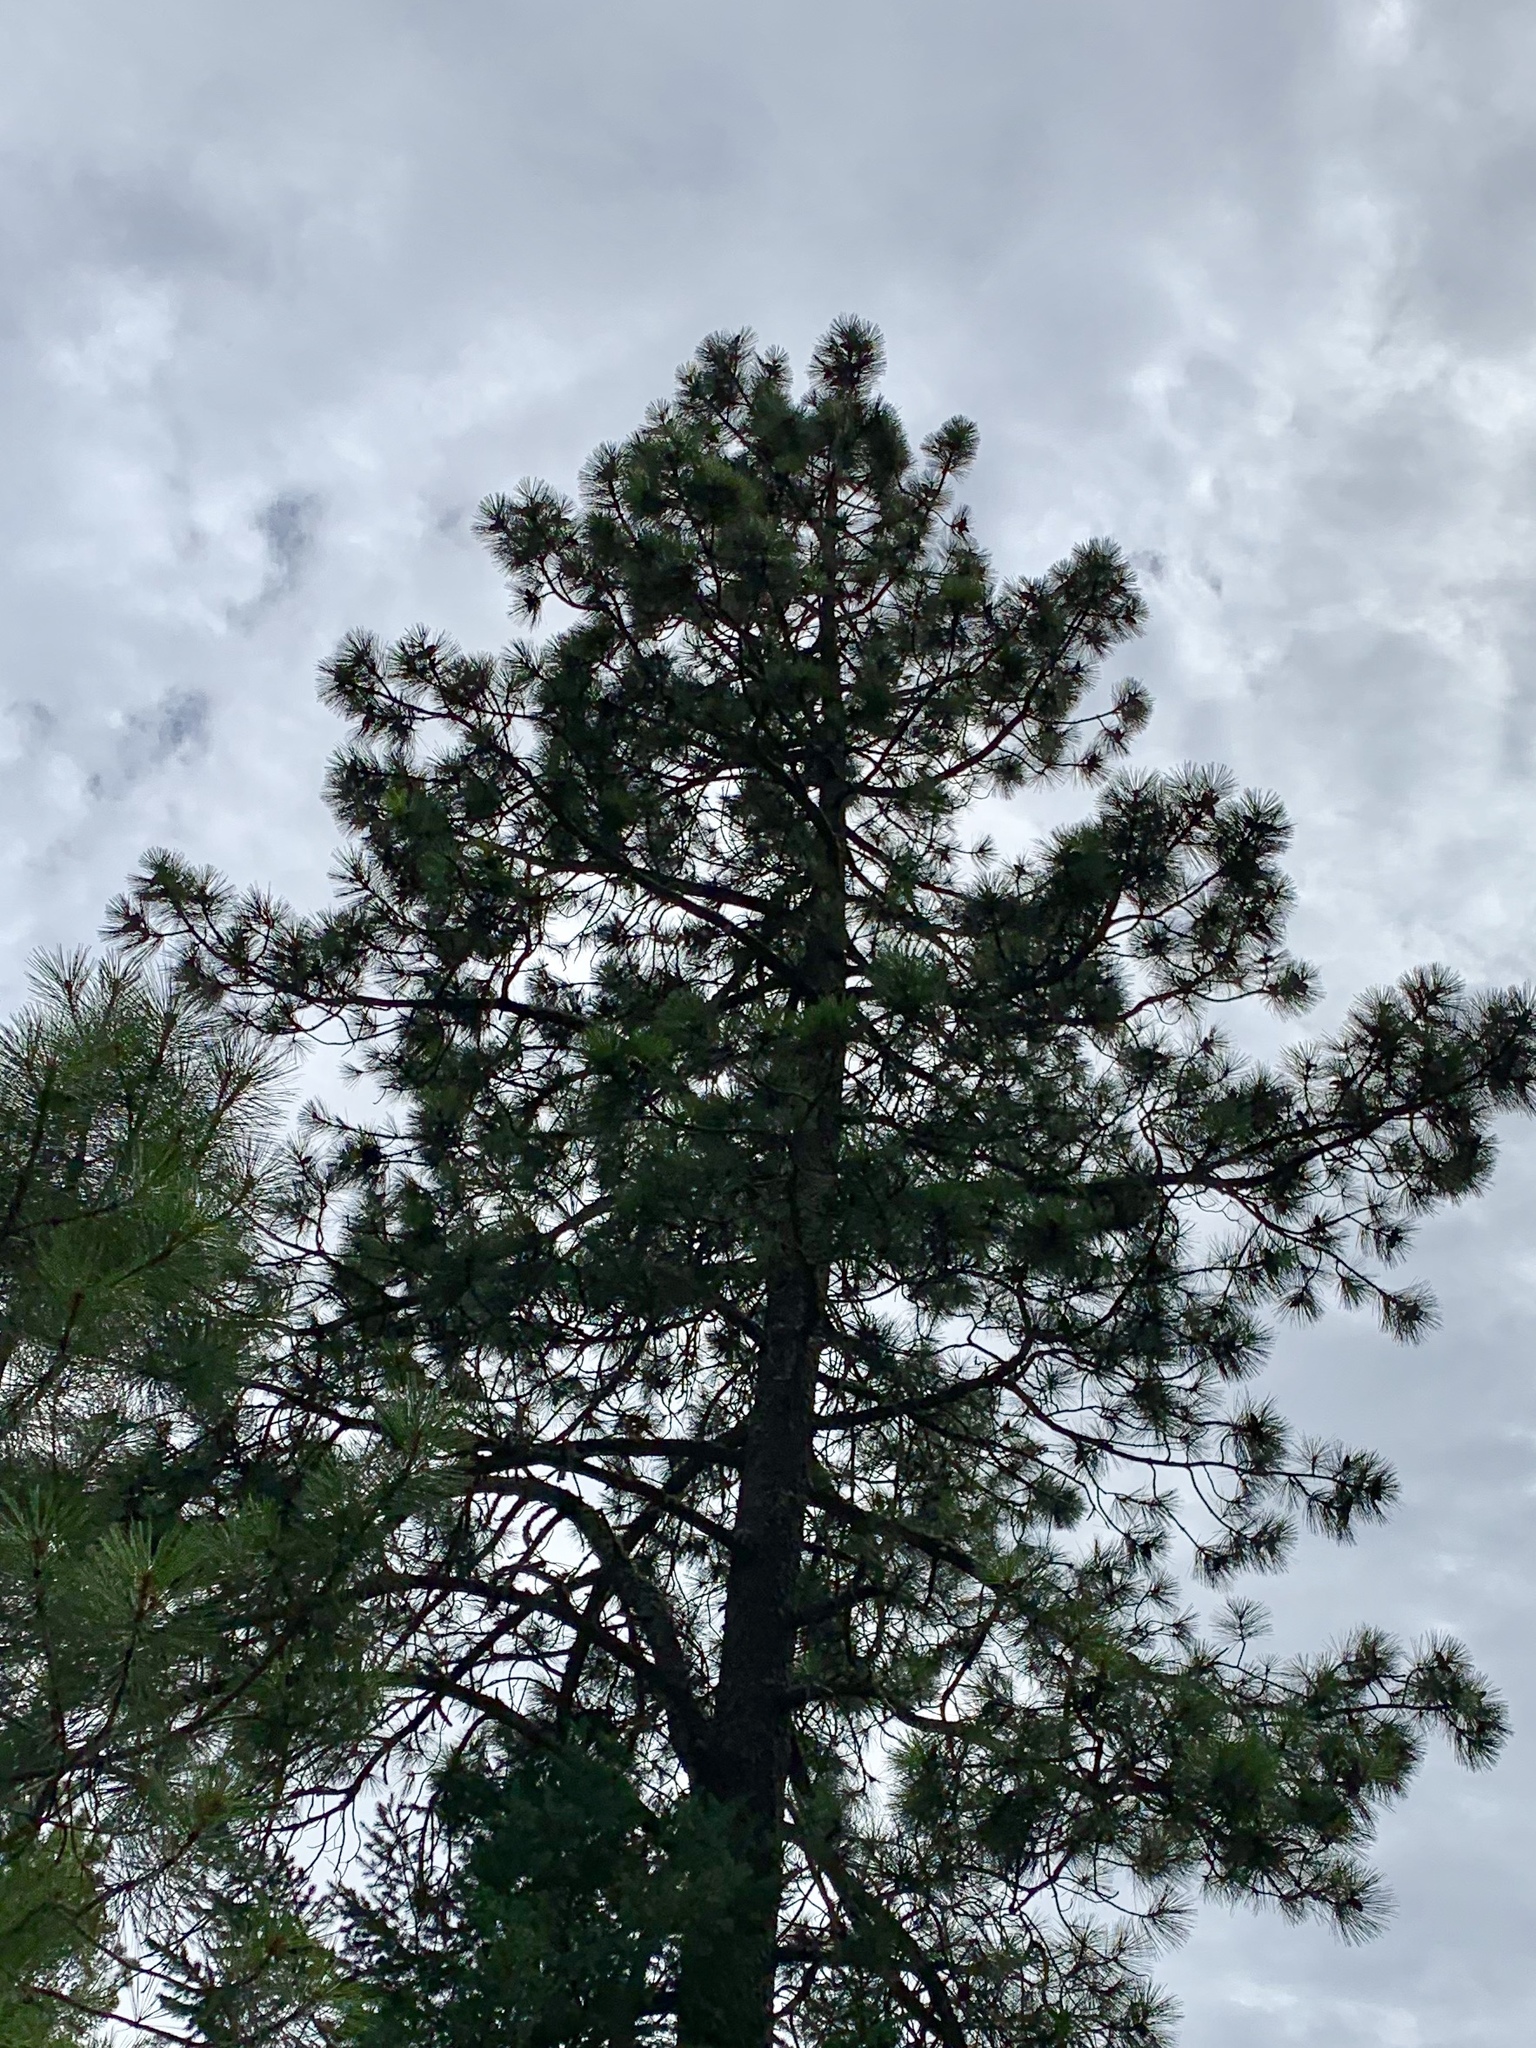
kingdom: Plantae
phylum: Tracheophyta
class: Pinopsida
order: Pinales
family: Pinaceae
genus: Pinus
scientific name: Pinus ponderosa
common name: Western yellow-pine
